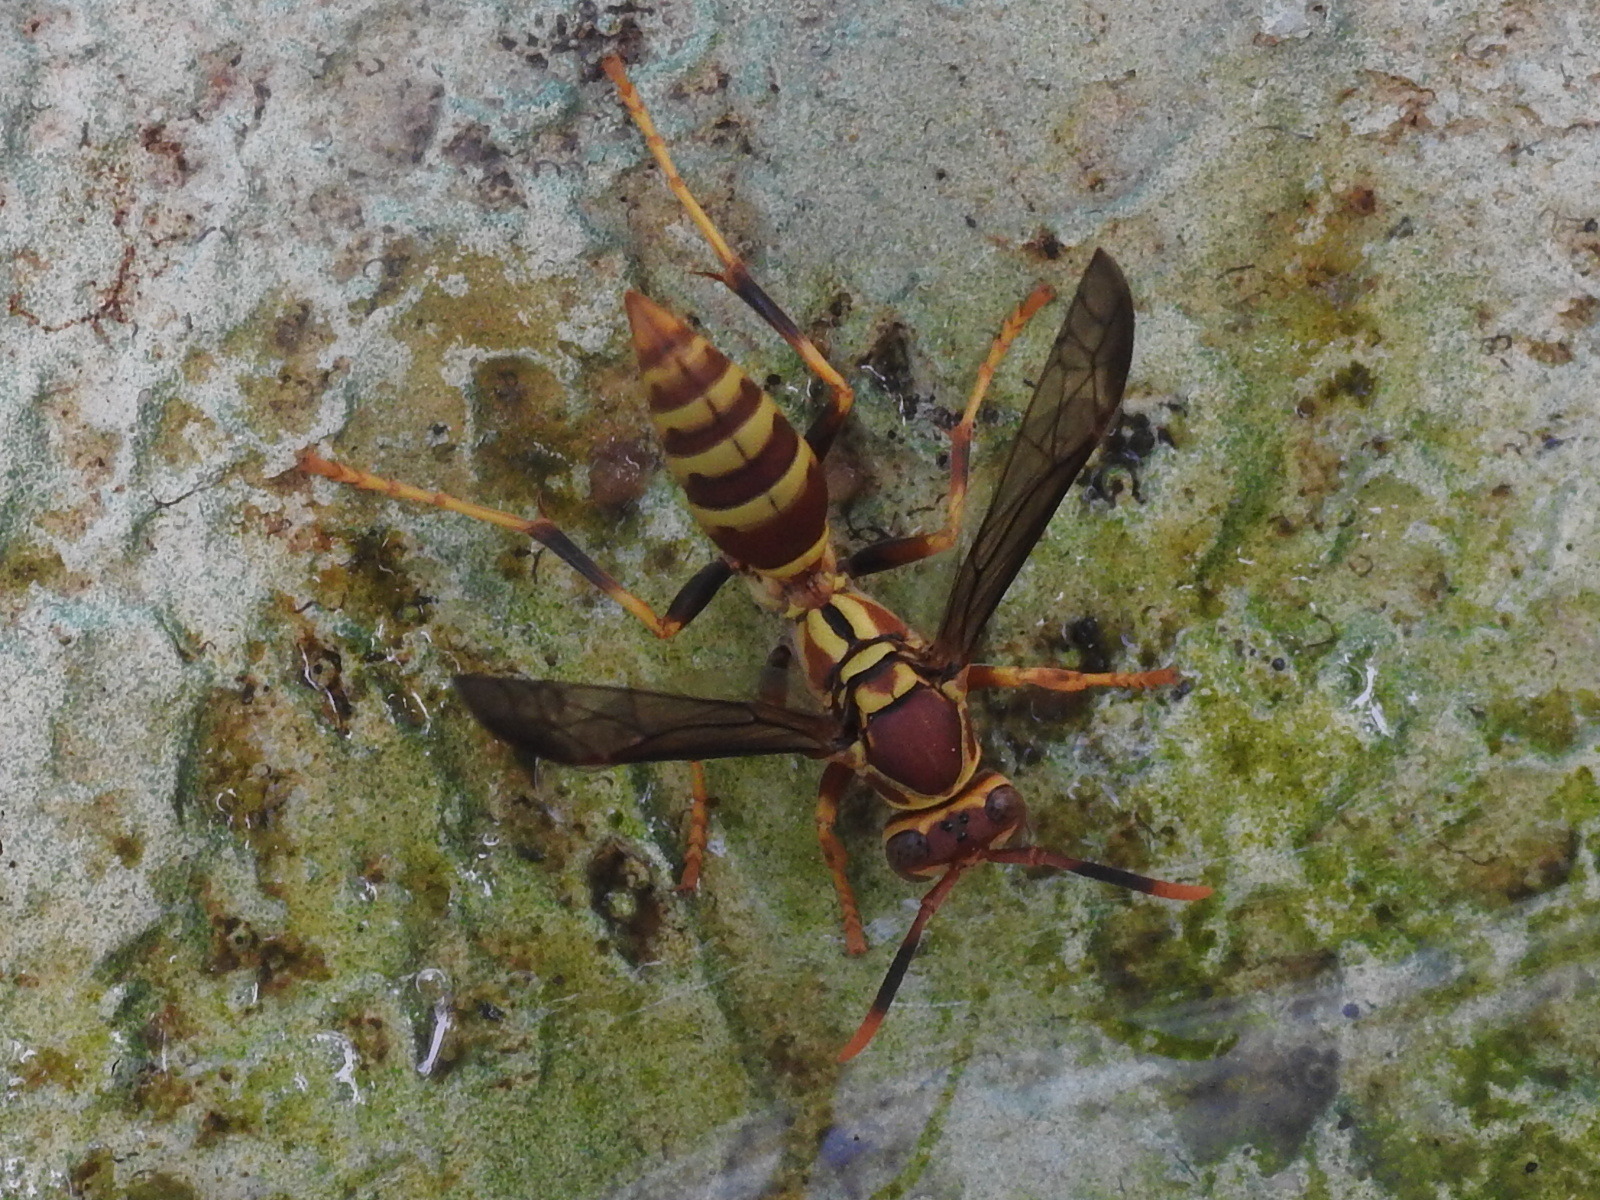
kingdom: Animalia
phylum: Arthropoda
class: Insecta
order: Hymenoptera
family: Eumenidae
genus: Polistes
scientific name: Polistes exclamans
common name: Paper wasp
